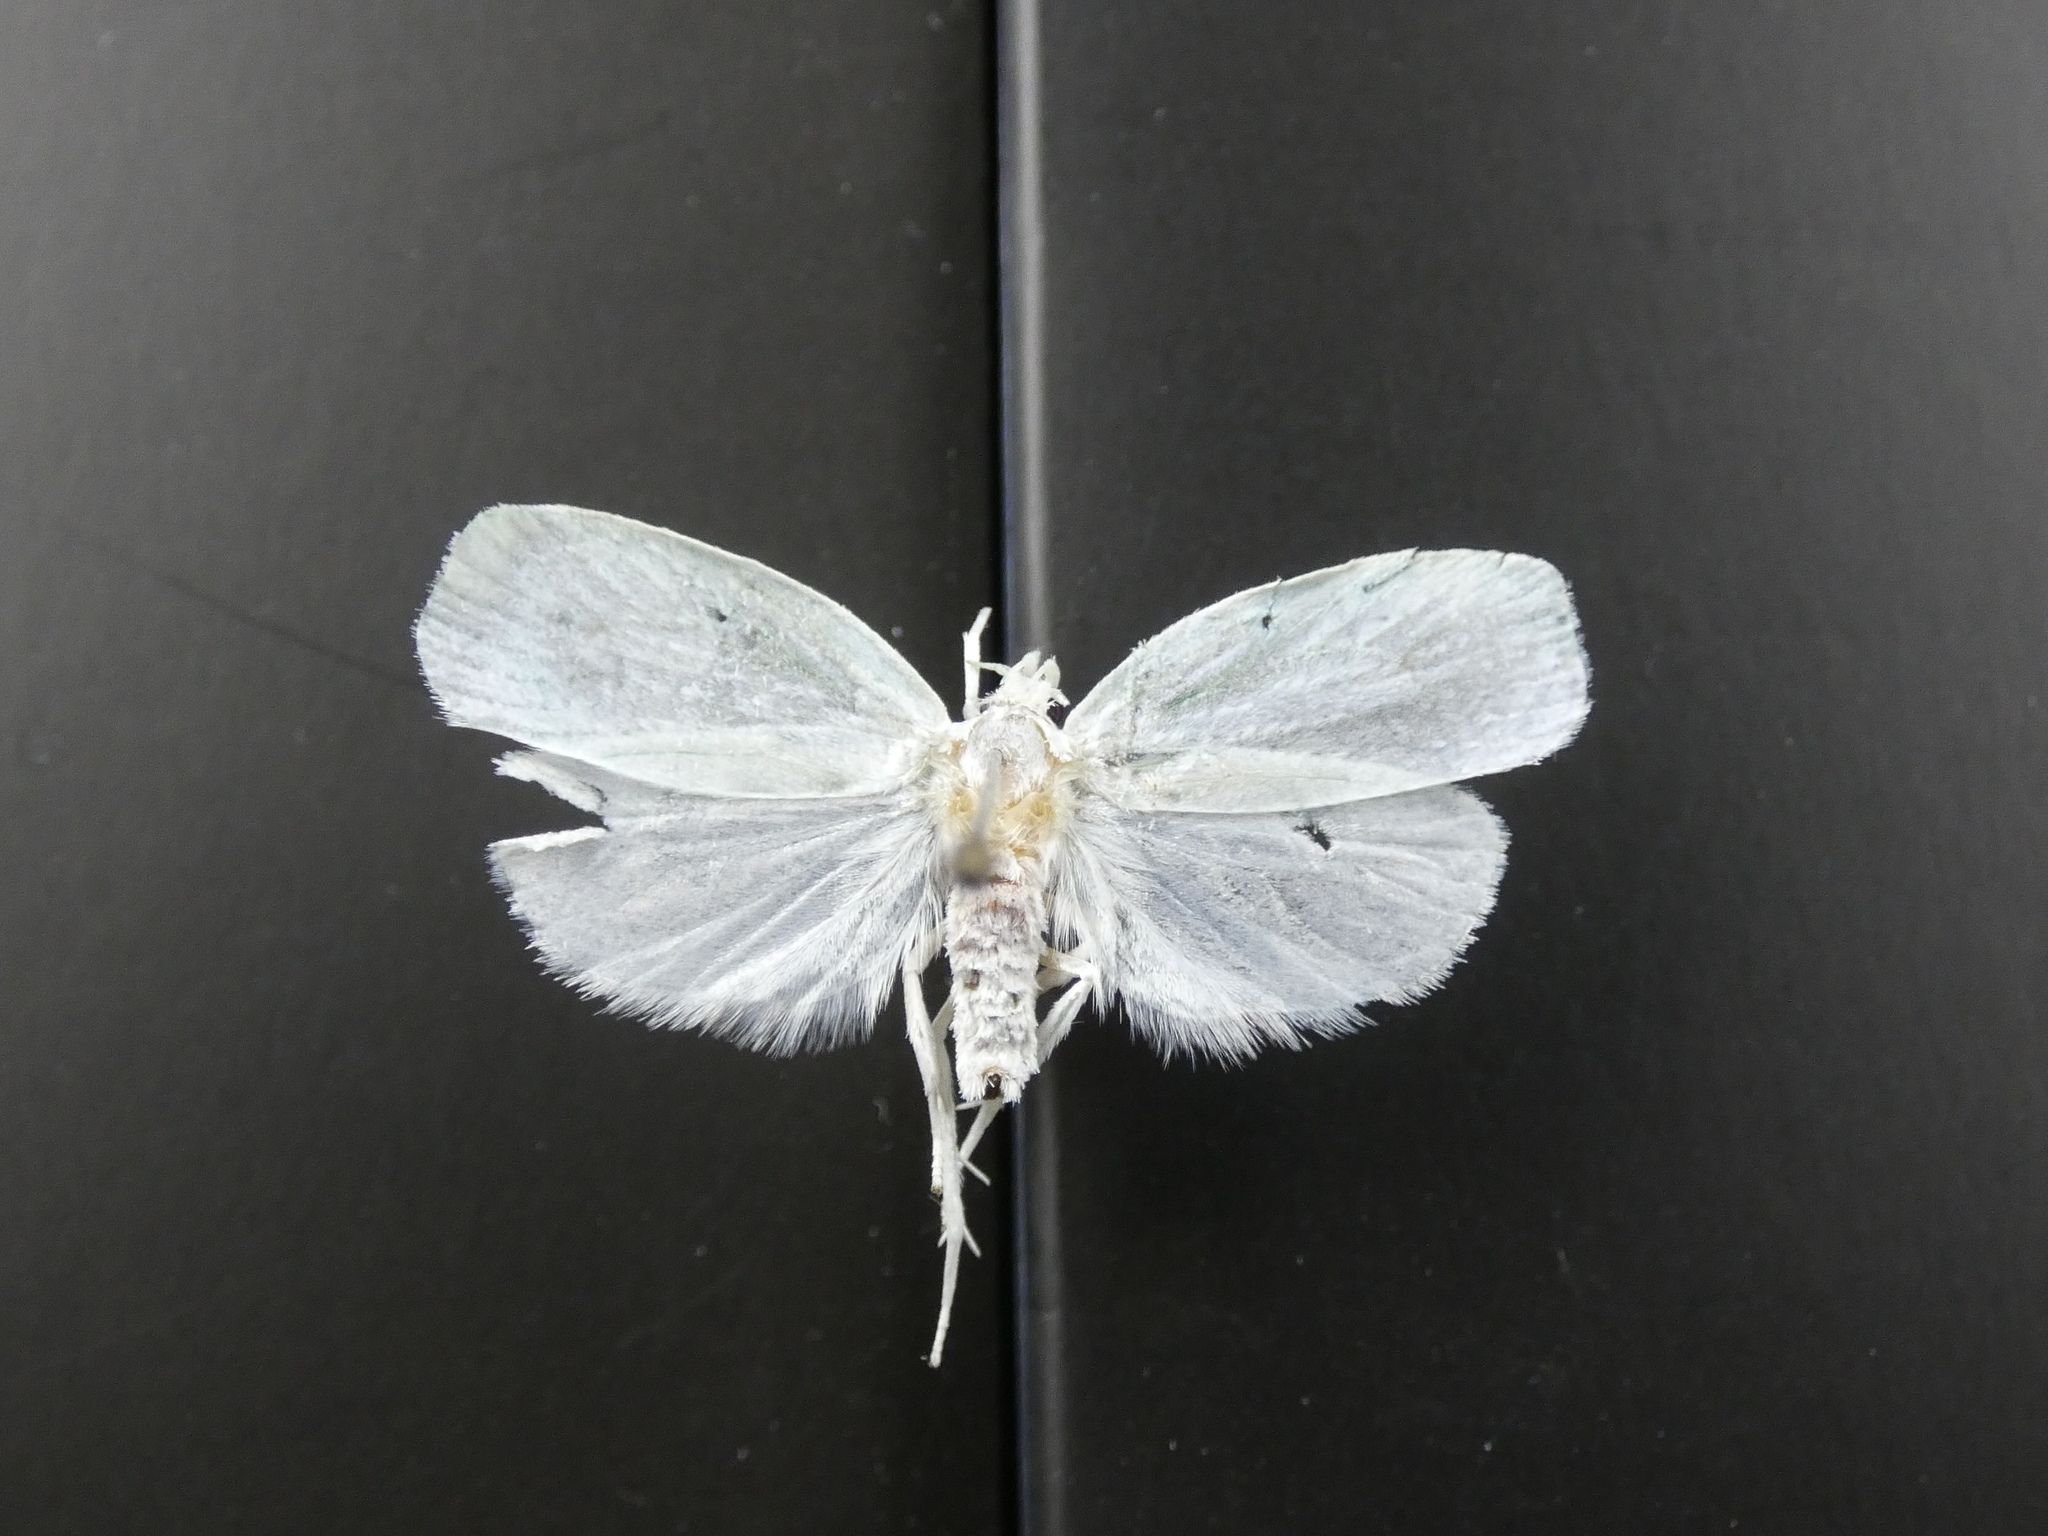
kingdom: Animalia
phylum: Arthropoda
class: Insecta
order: Lepidoptera
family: Oecophoridae
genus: Nymphostola
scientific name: Nymphostola galactina
